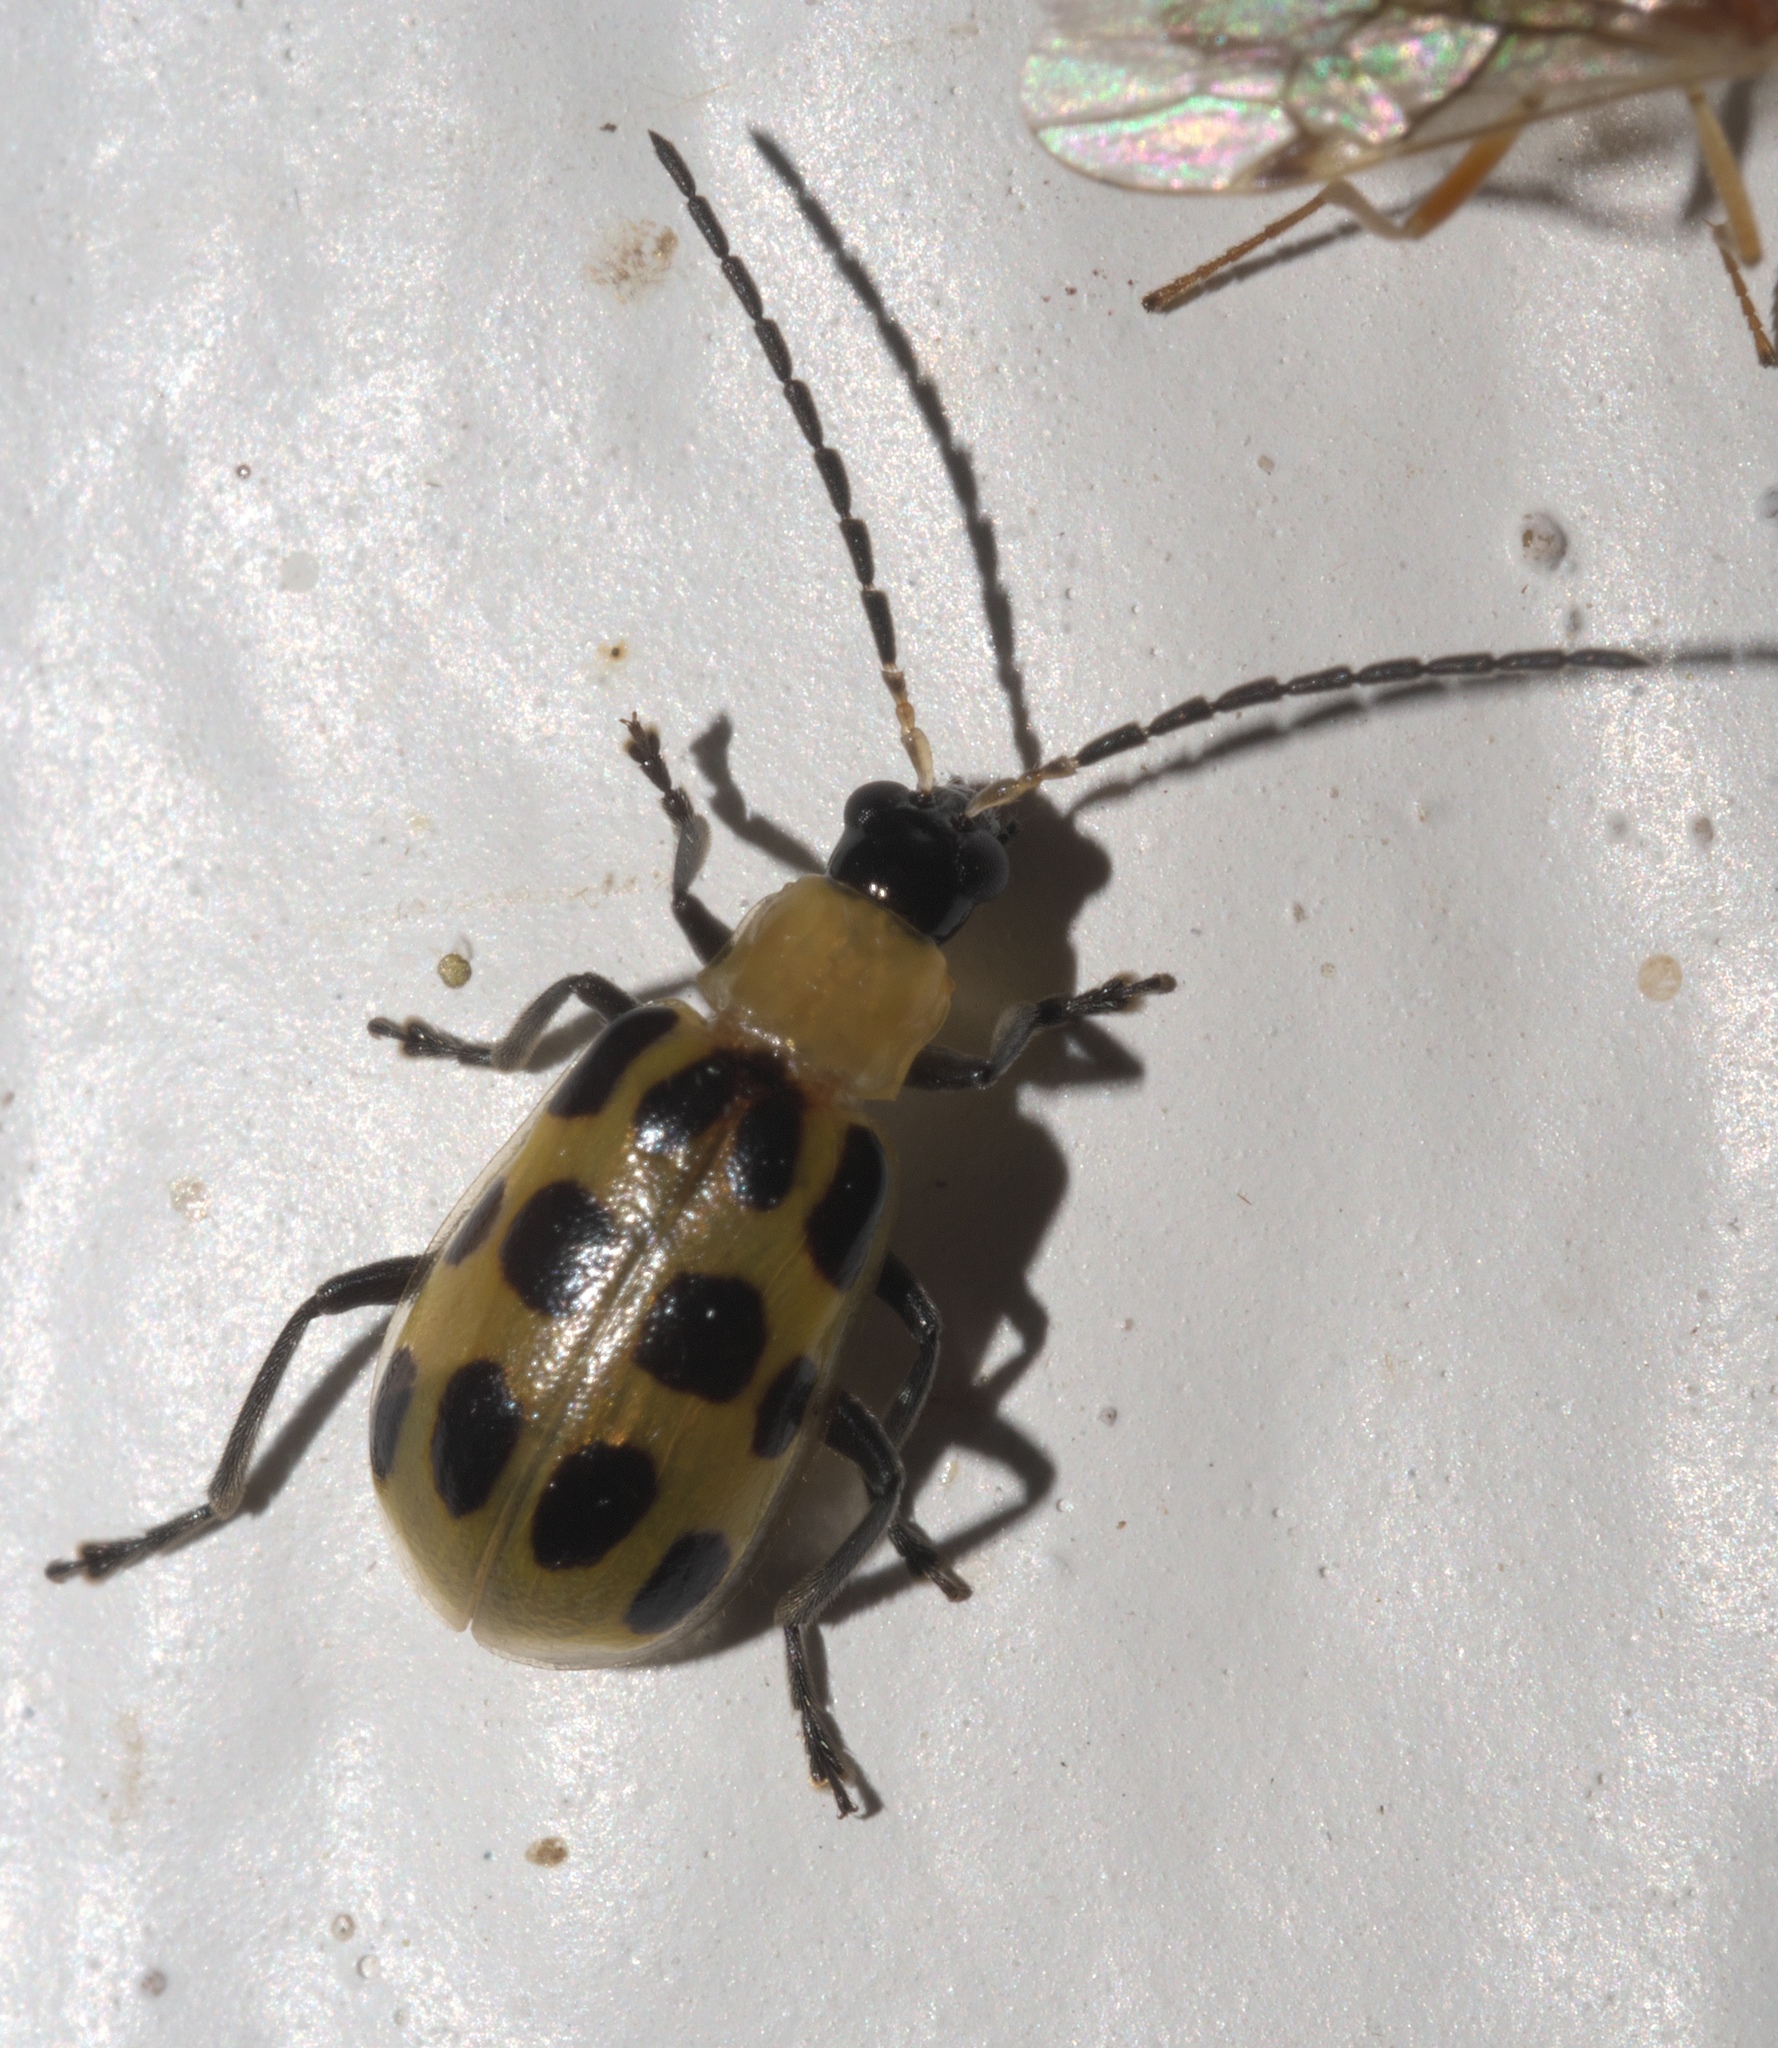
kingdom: Animalia
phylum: Arthropoda
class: Insecta
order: Coleoptera
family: Chrysomelidae
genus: Diabrotica
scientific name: Diabrotica undecimpunctata
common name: Spotted cucumber beetle
